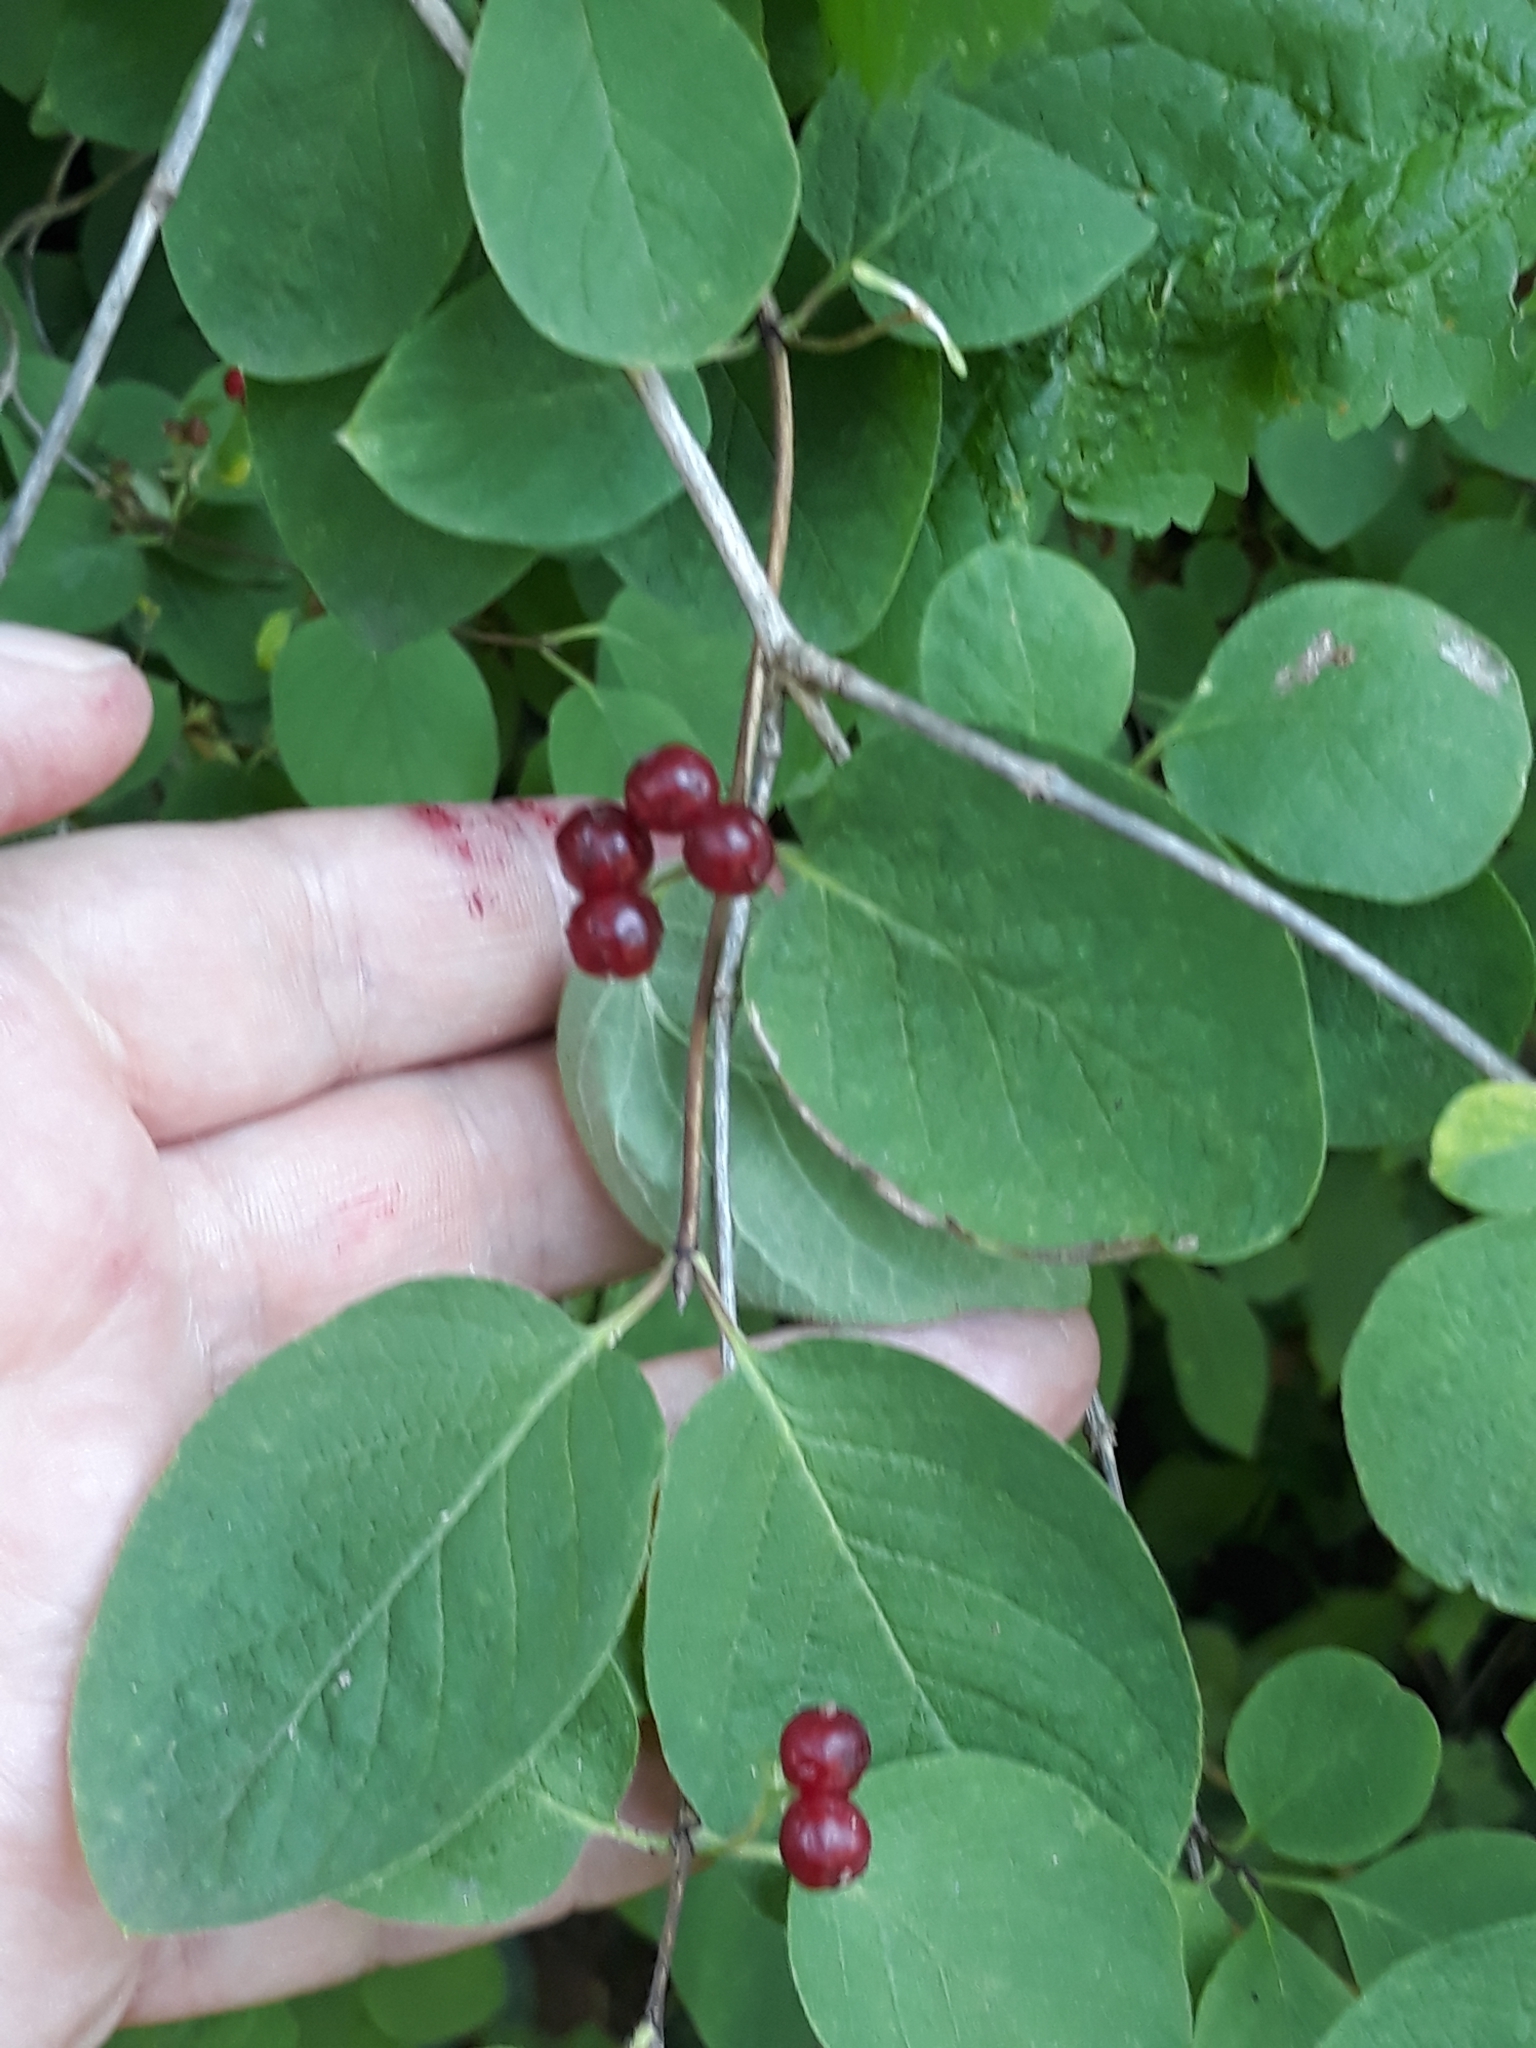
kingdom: Plantae
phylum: Tracheophyta
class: Magnoliopsida
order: Dipsacales
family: Caprifoliaceae
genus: Lonicera
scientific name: Lonicera xylosteum
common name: Fly honeysuckle
